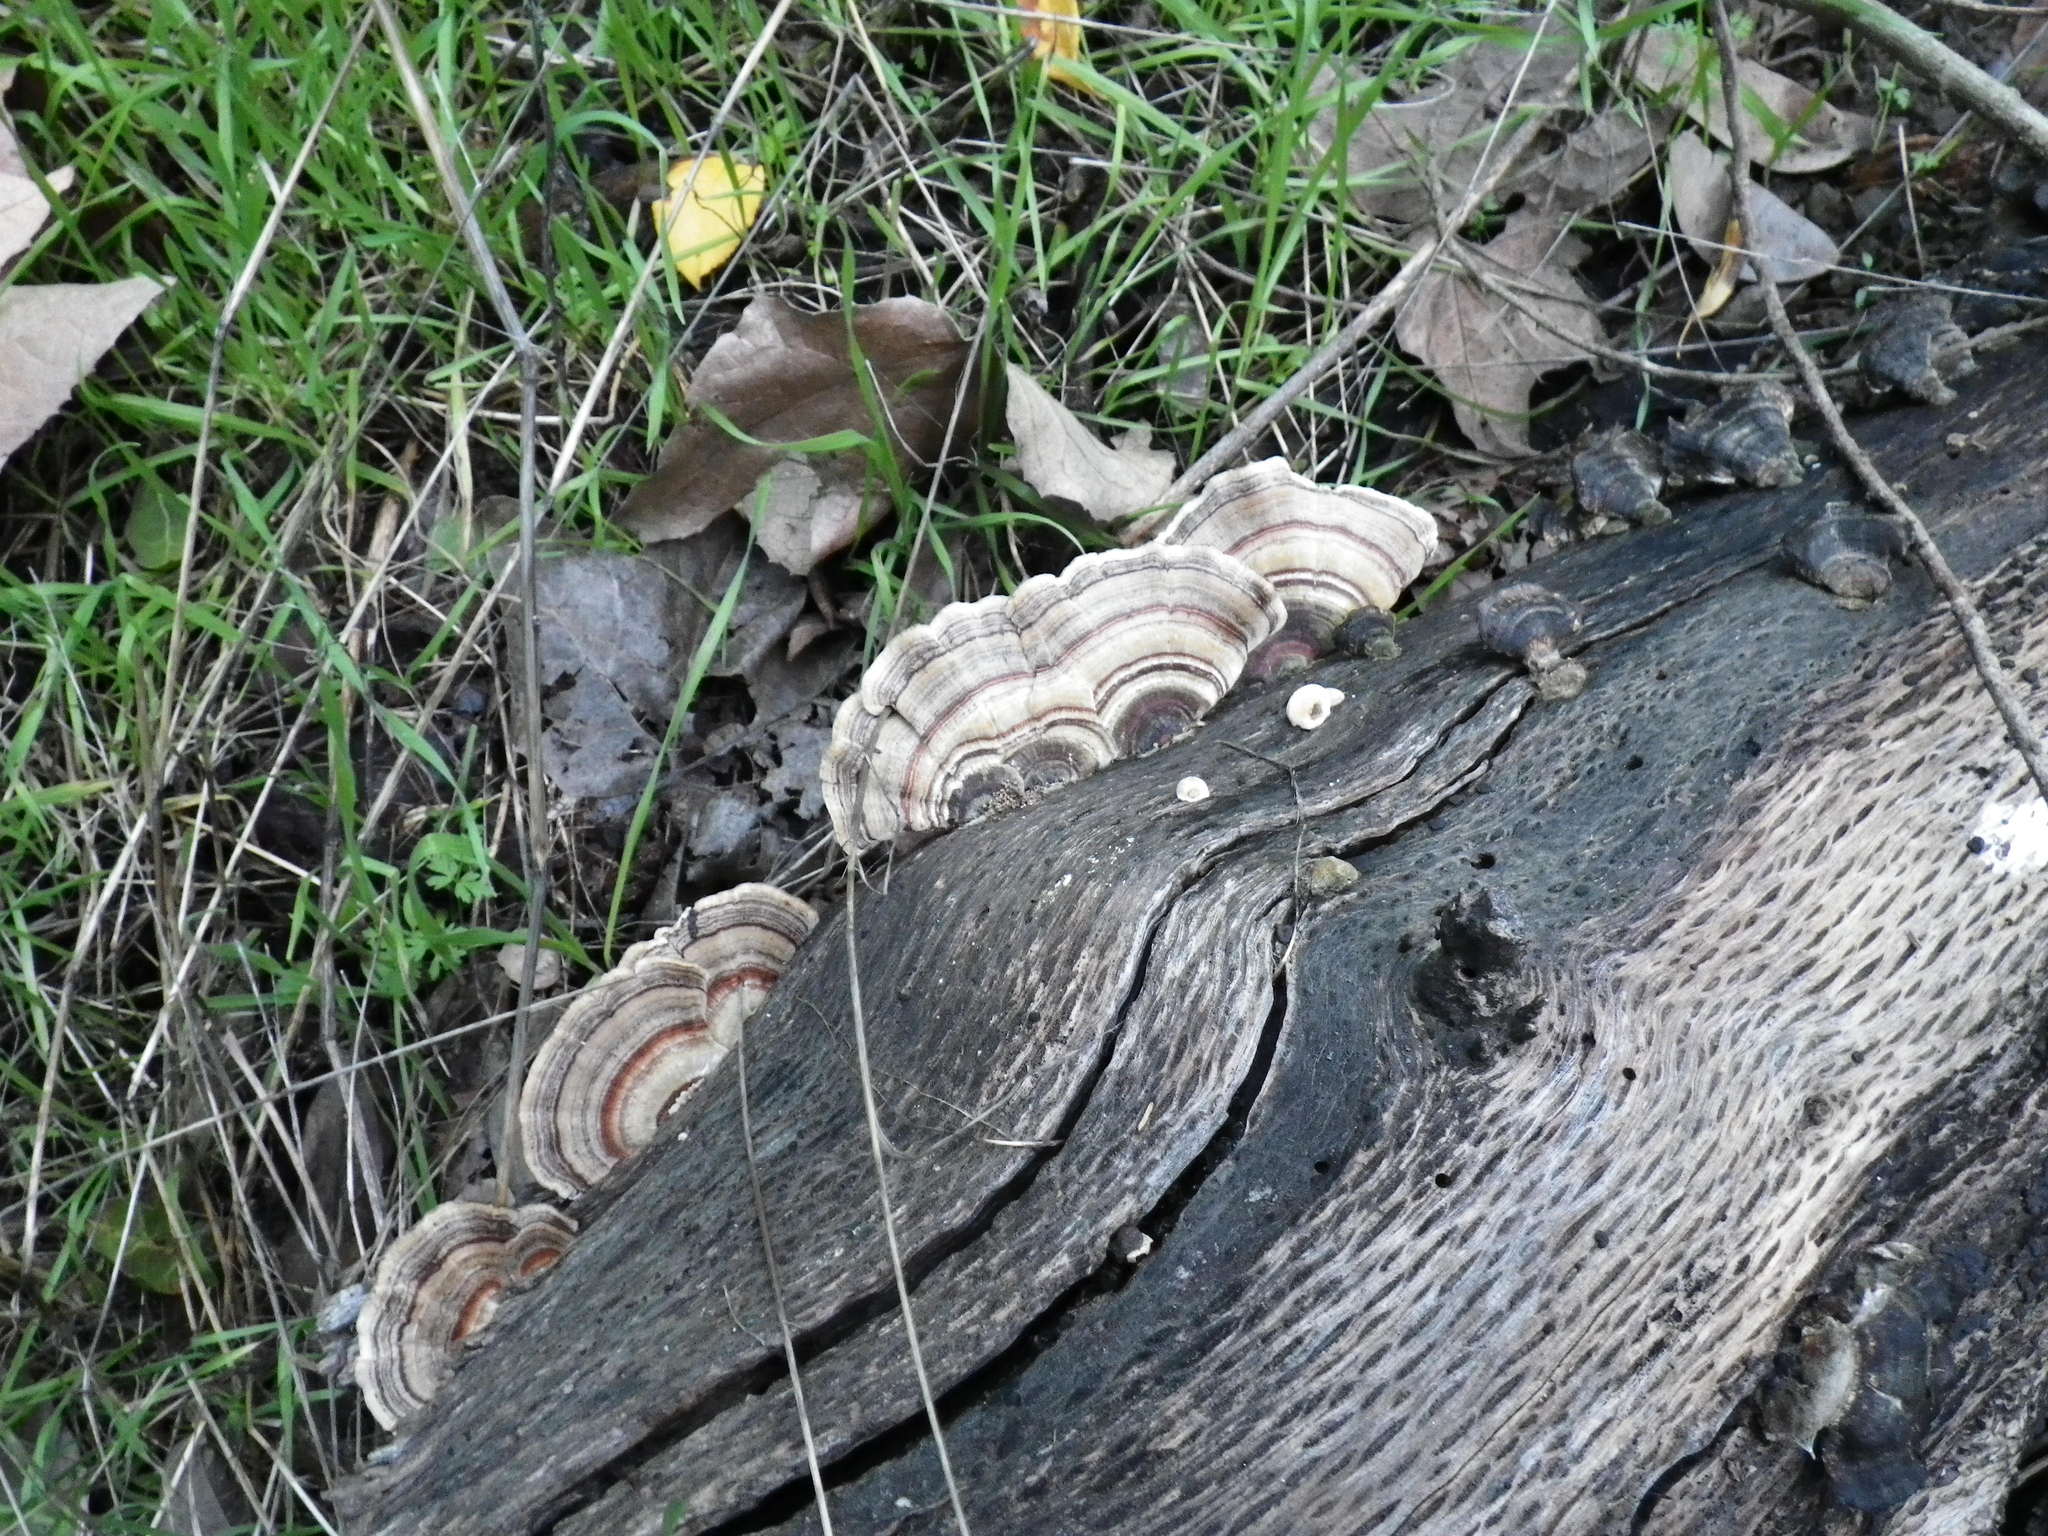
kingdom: Fungi
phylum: Basidiomycota
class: Agaricomycetes
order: Polyporales
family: Polyporaceae
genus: Trametes
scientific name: Trametes versicolor
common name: Turkeytail
